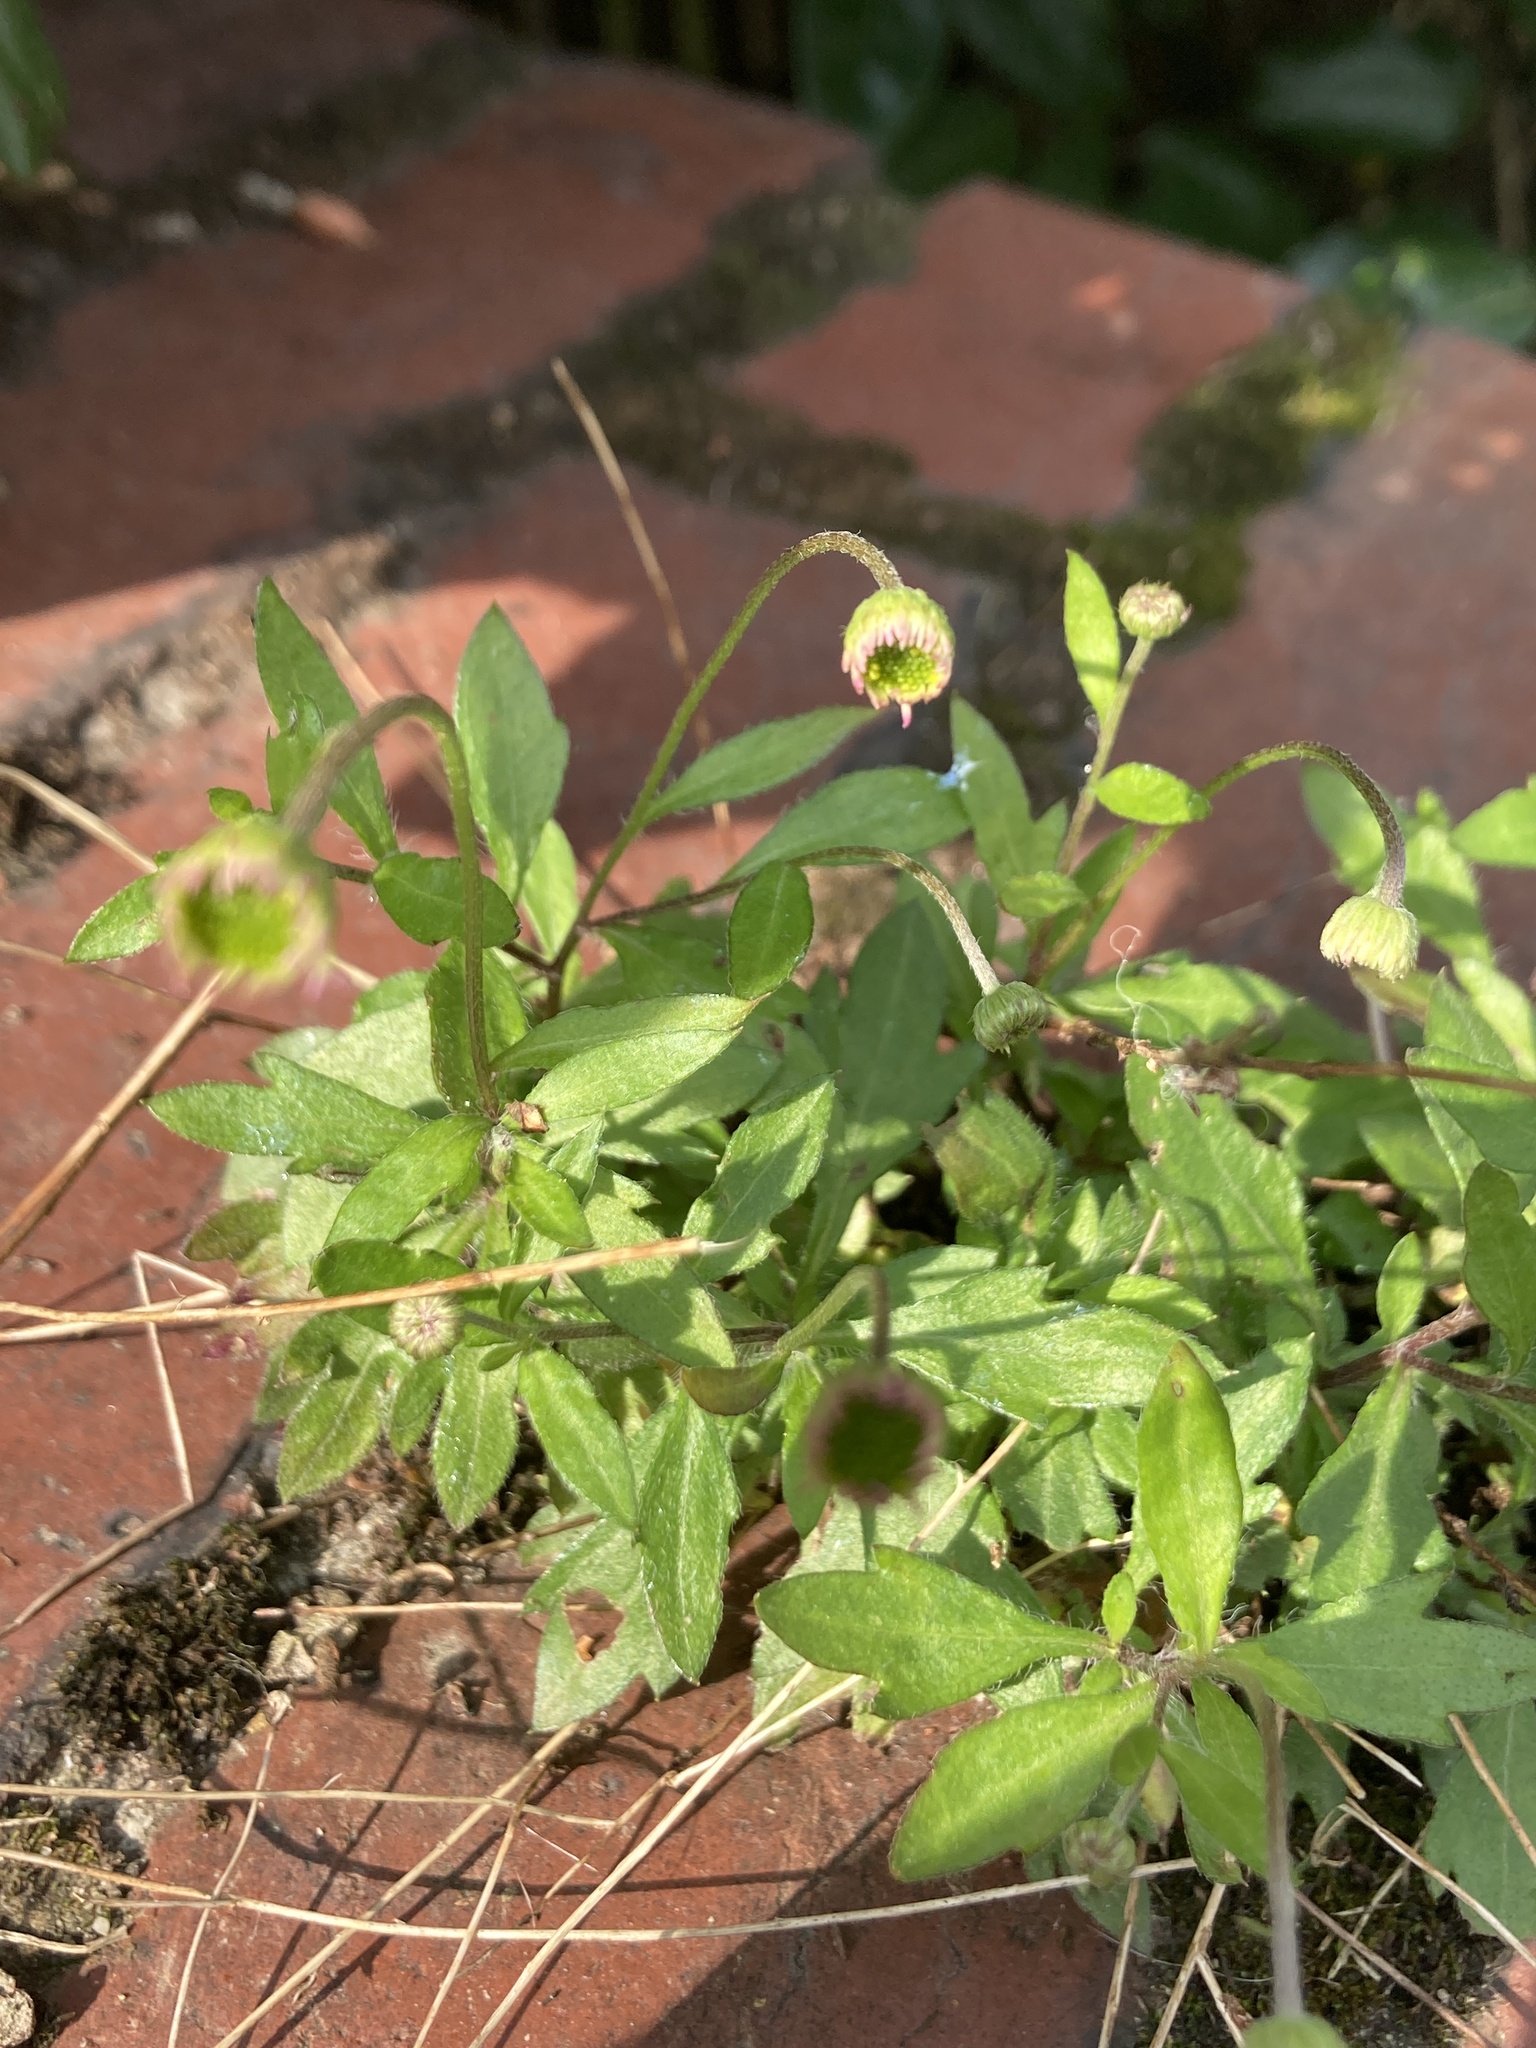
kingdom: Plantae
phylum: Tracheophyta
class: Magnoliopsida
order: Asterales
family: Asteraceae
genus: Erigeron
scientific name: Erigeron karvinskianus
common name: Mexican fleabane
